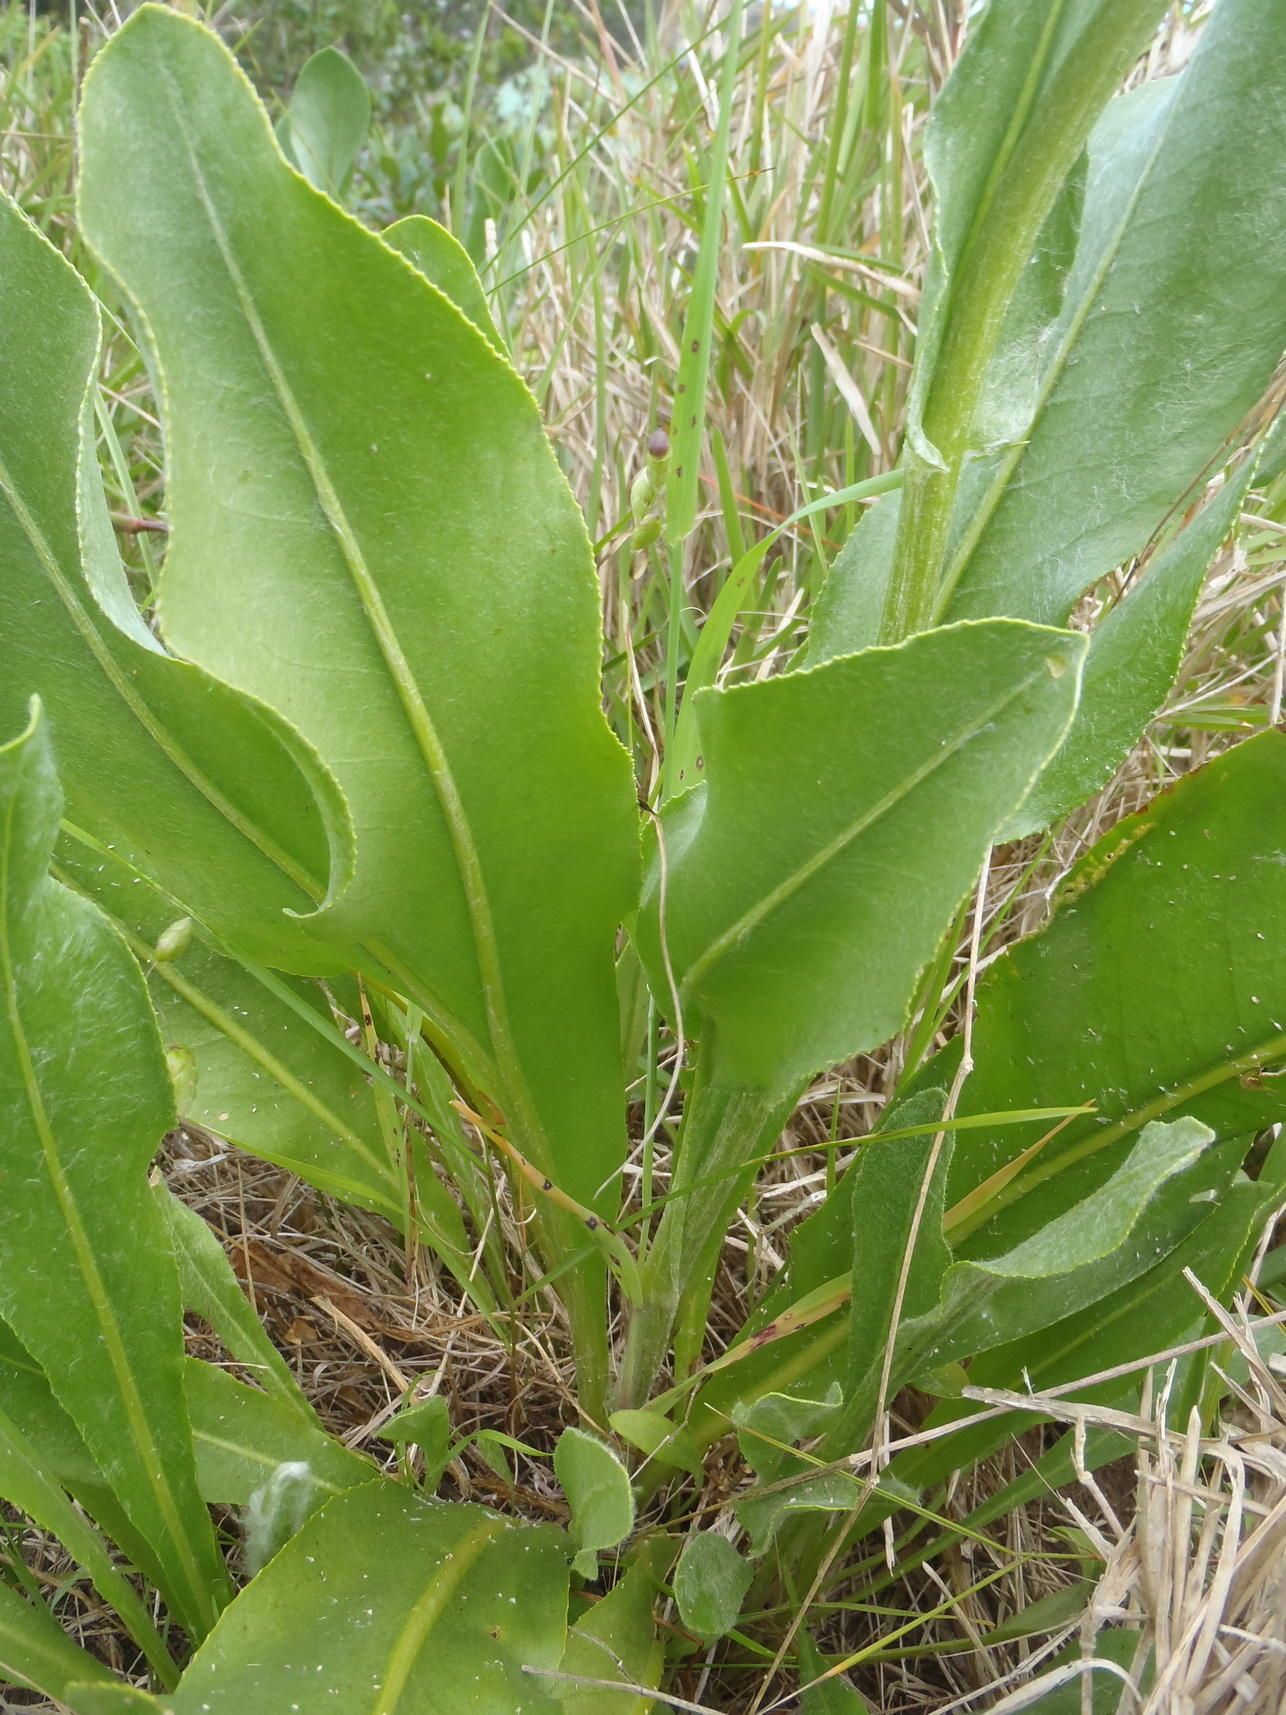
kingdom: Plantae
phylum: Tracheophyta
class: Magnoliopsida
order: Asterales
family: Asteraceae
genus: Senecio
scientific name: Senecio coronatus
